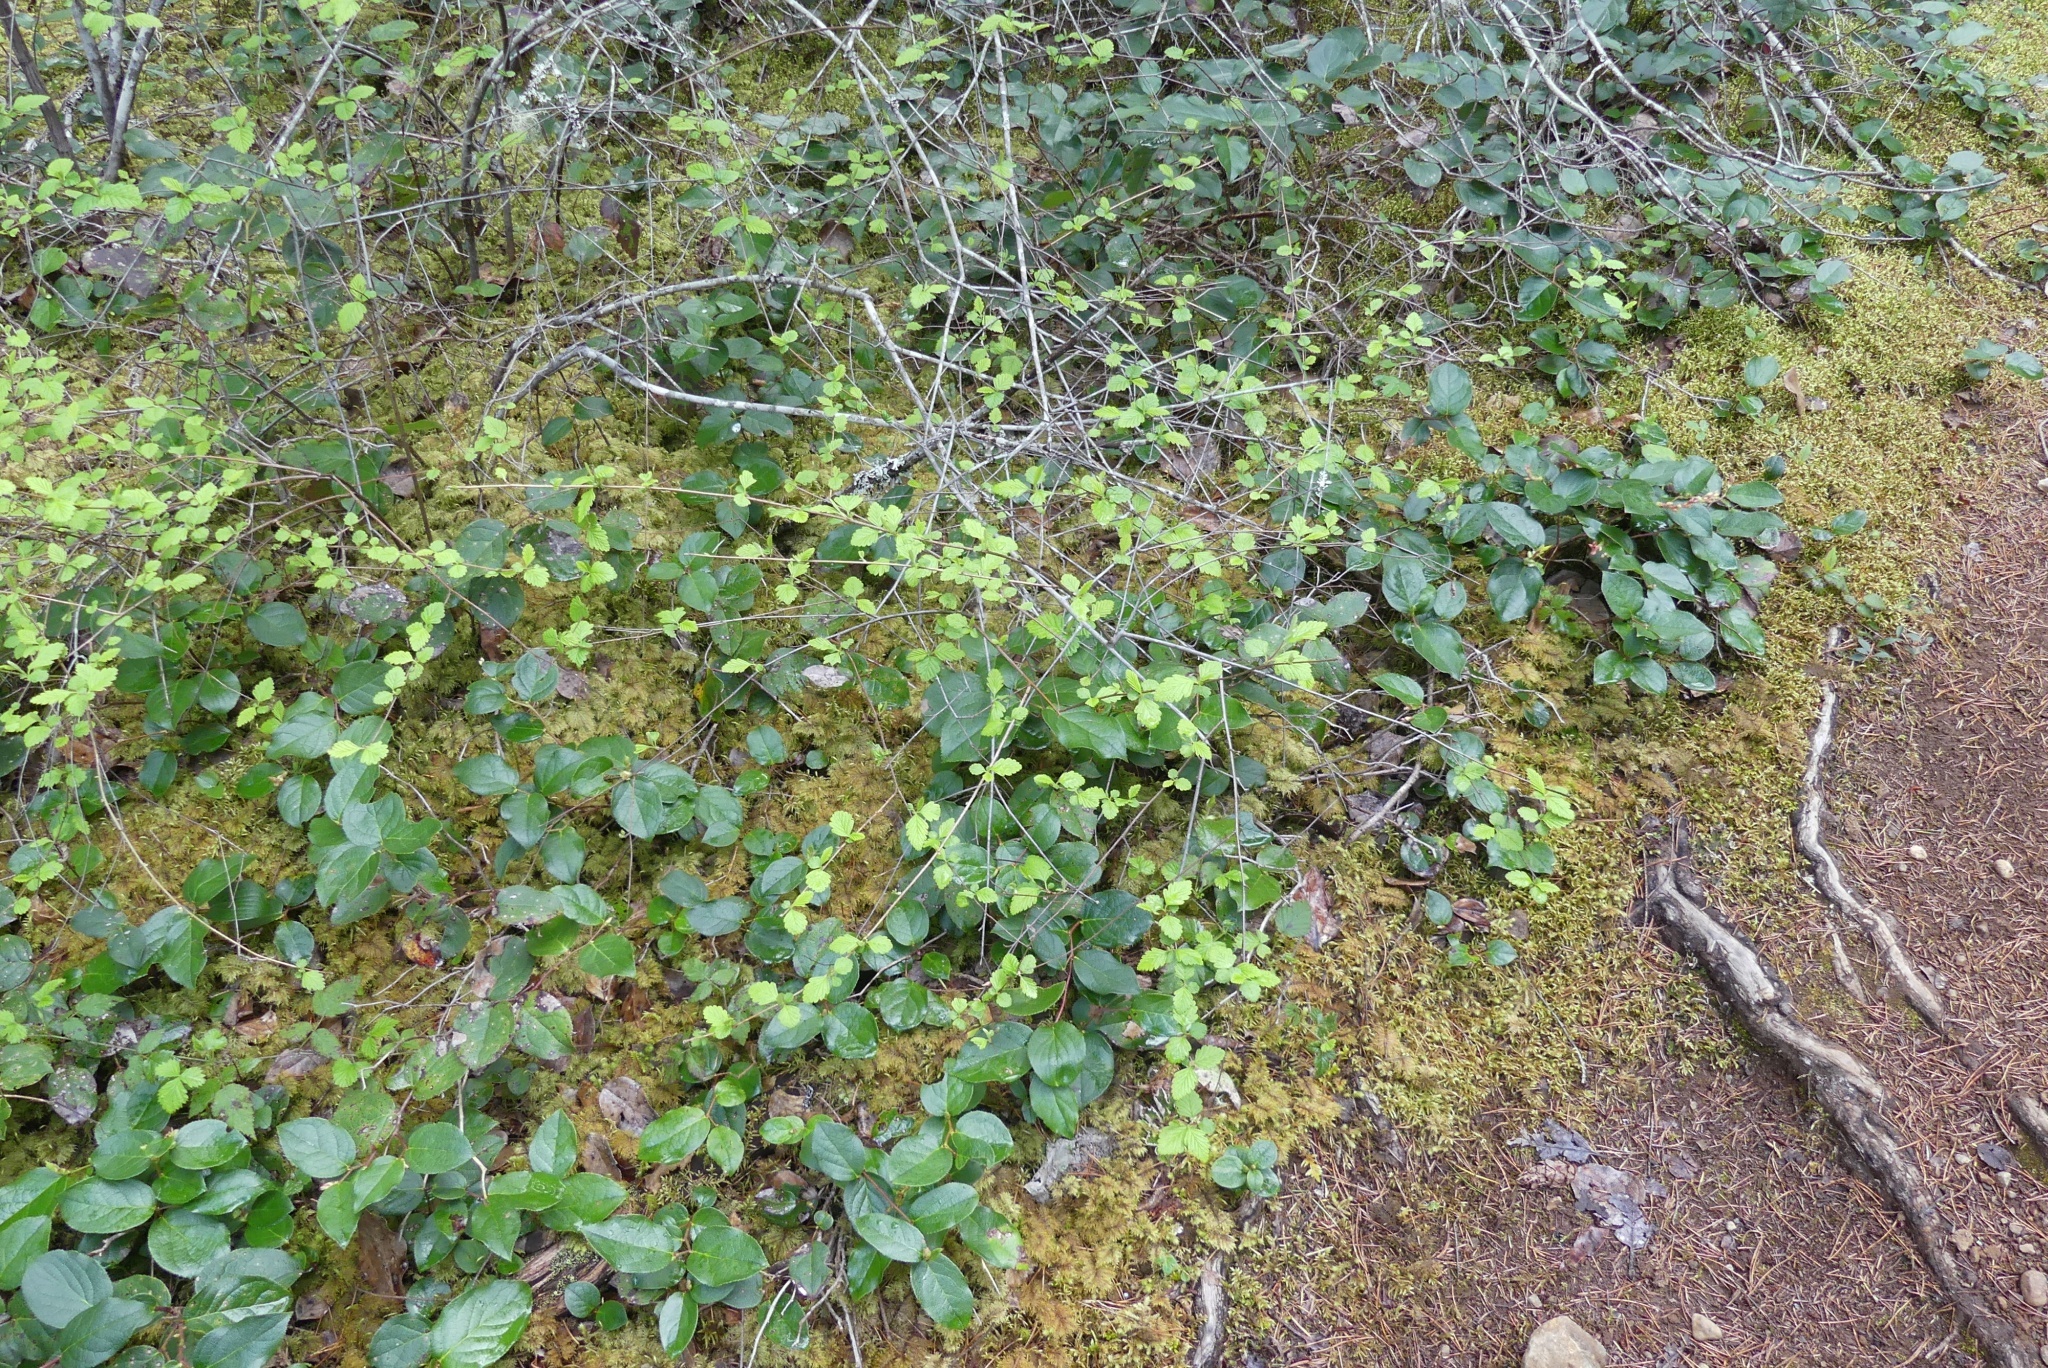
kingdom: Plantae
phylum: Tracheophyta
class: Magnoliopsida
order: Rosales
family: Rosaceae
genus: Holodiscus
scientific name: Holodiscus discolor
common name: Oceanspray
